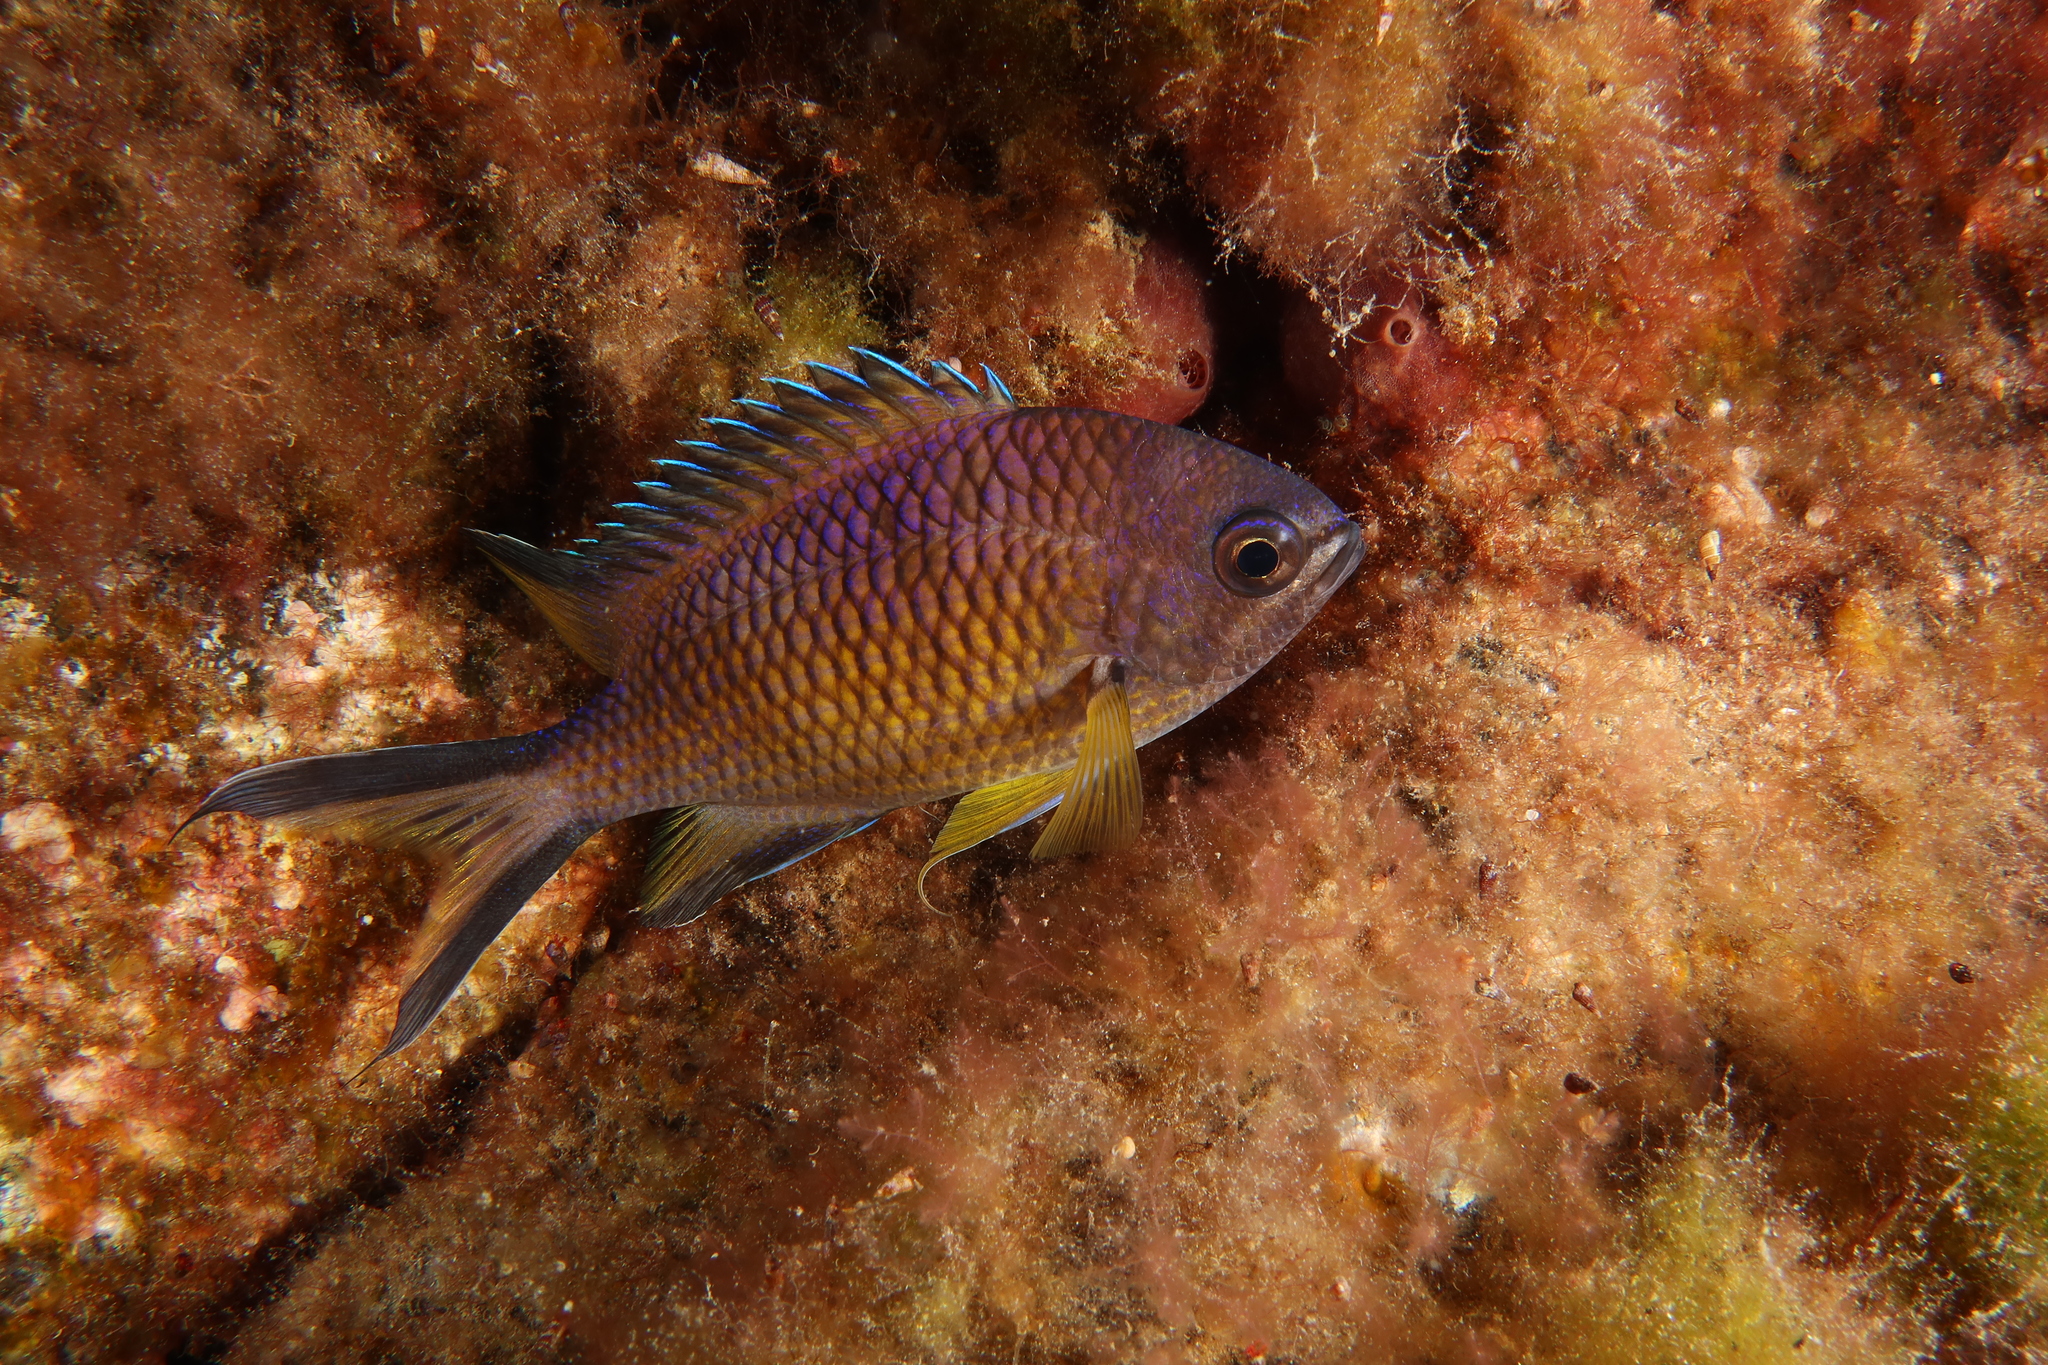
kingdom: Animalia
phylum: Chordata
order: Perciformes
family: Pomacentridae
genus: Chromis
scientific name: Chromis limbata
